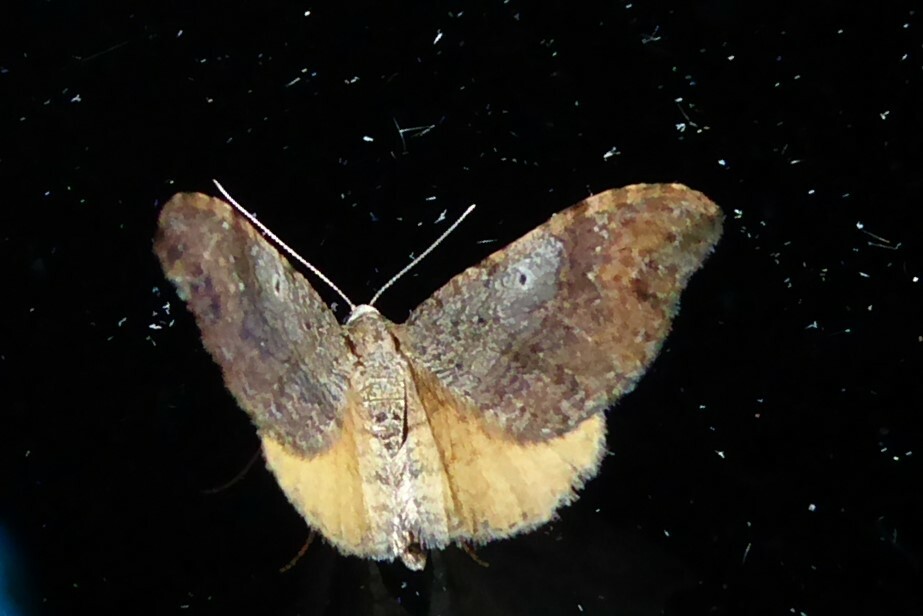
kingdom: Animalia
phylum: Arthropoda
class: Insecta
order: Lepidoptera
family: Geometridae
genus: Homodotis
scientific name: Homodotis megaspilata
